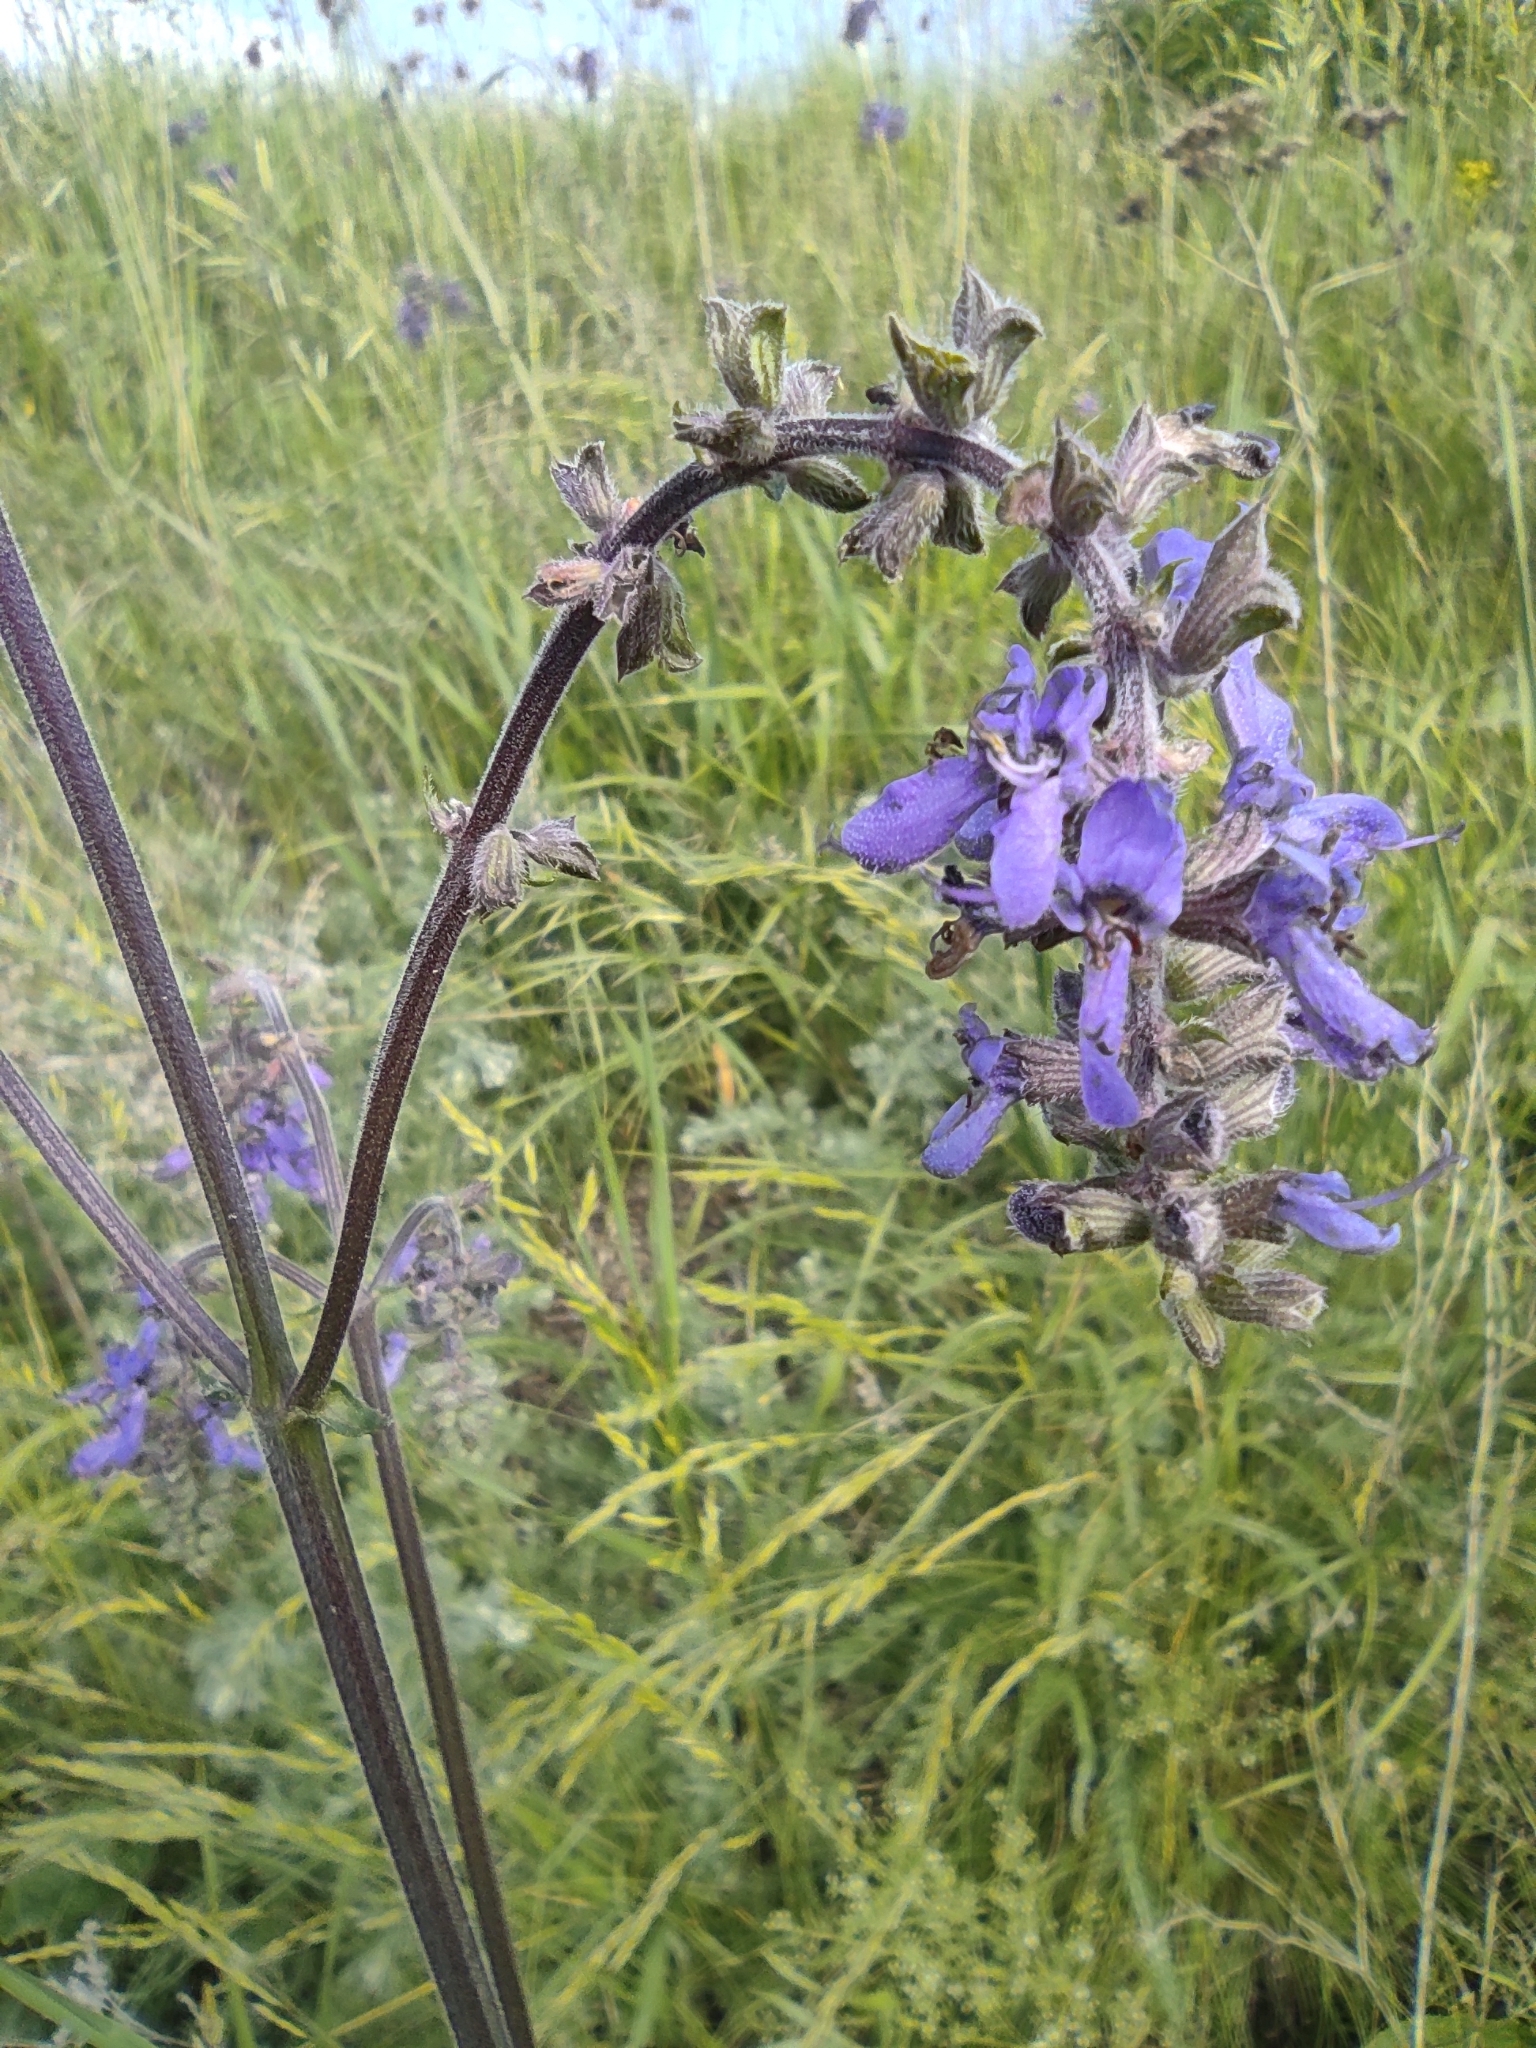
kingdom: Plantae
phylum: Tracheophyta
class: Magnoliopsida
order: Lamiales
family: Lamiaceae
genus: Salvia
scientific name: Salvia nutans
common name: Nodding sage
